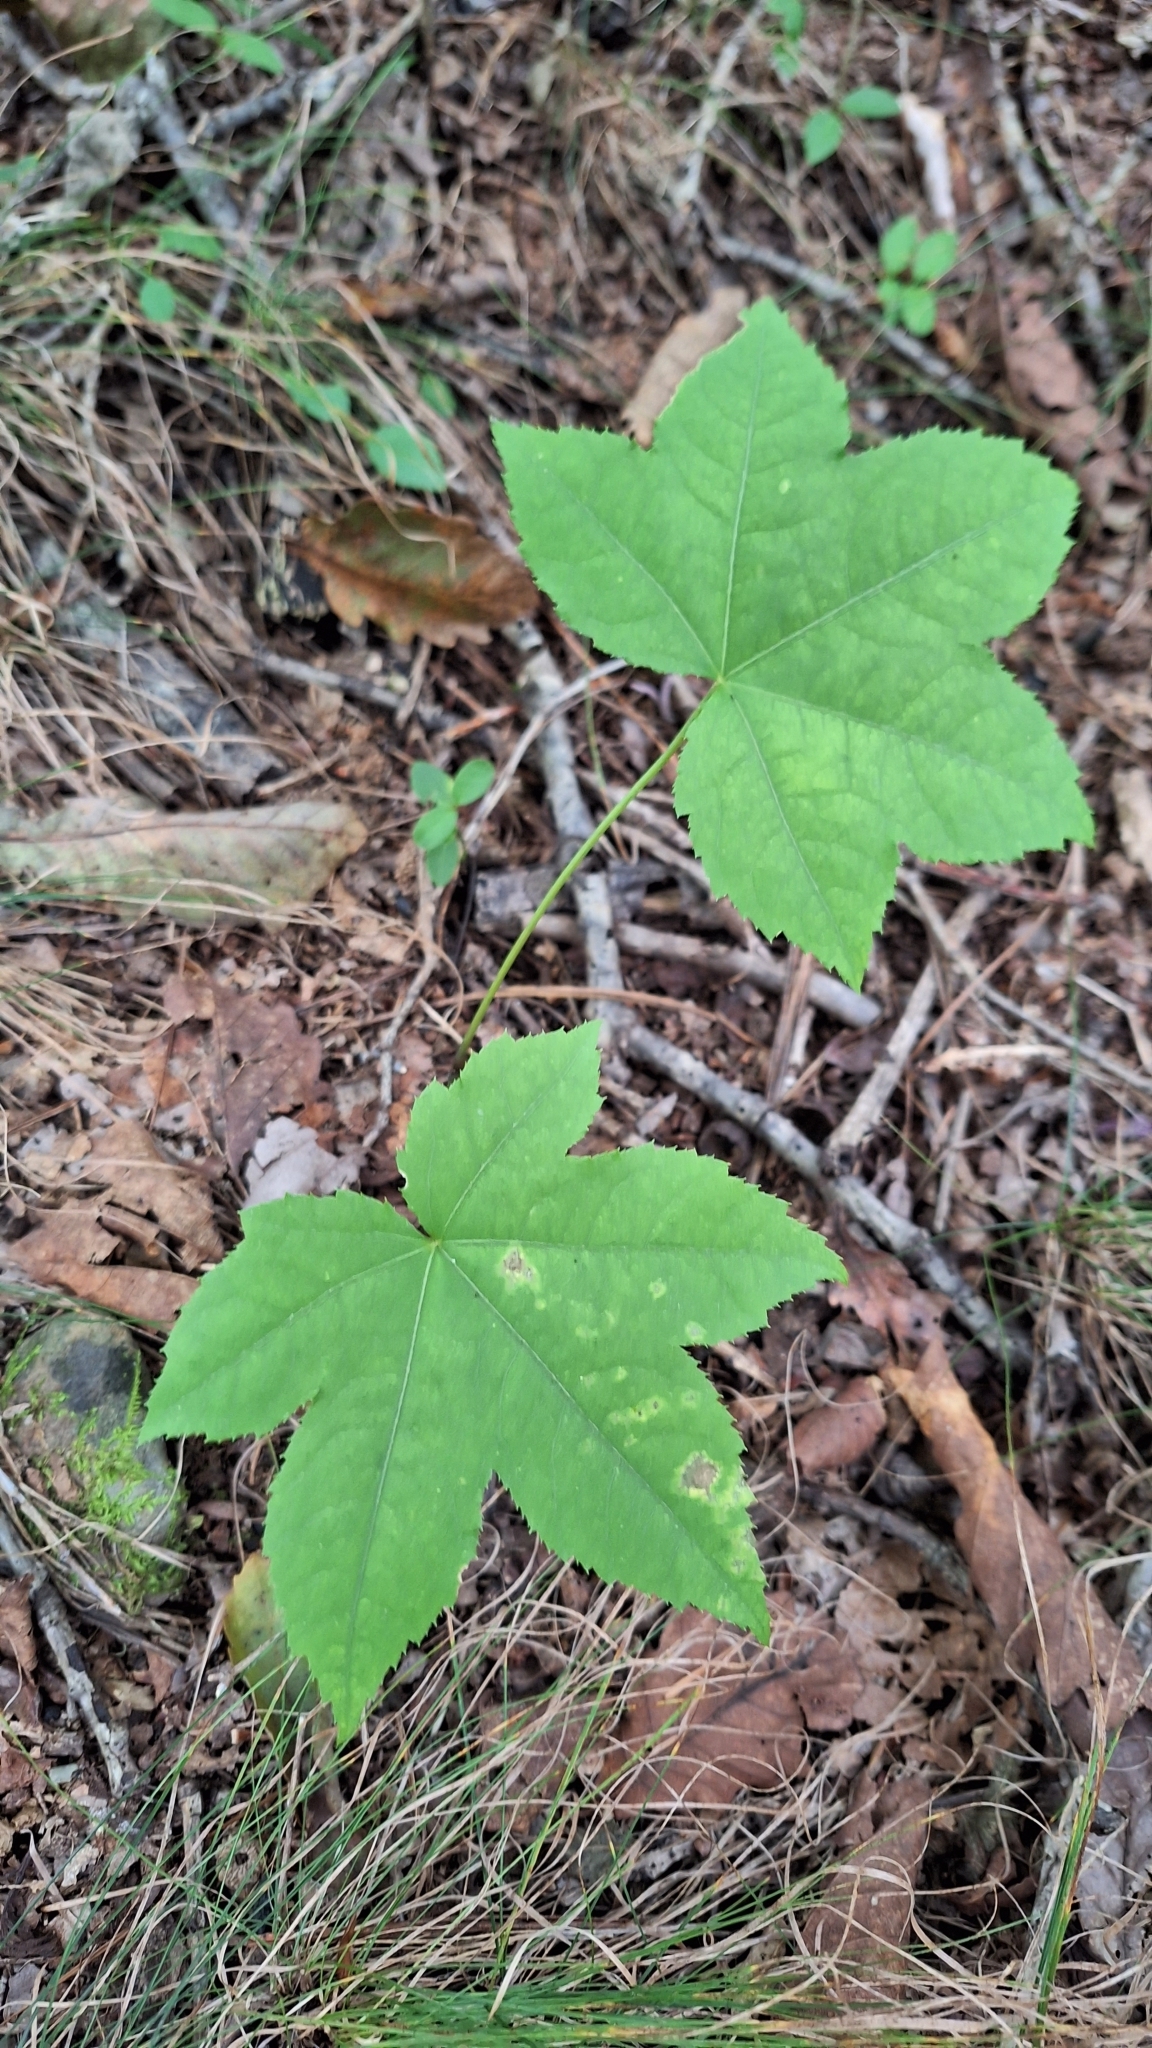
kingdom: Plantae
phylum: Tracheophyta
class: Magnoliopsida
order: Apiales
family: Araliaceae
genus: Kalopanax
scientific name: Kalopanax septemlobus
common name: Castor aralia
